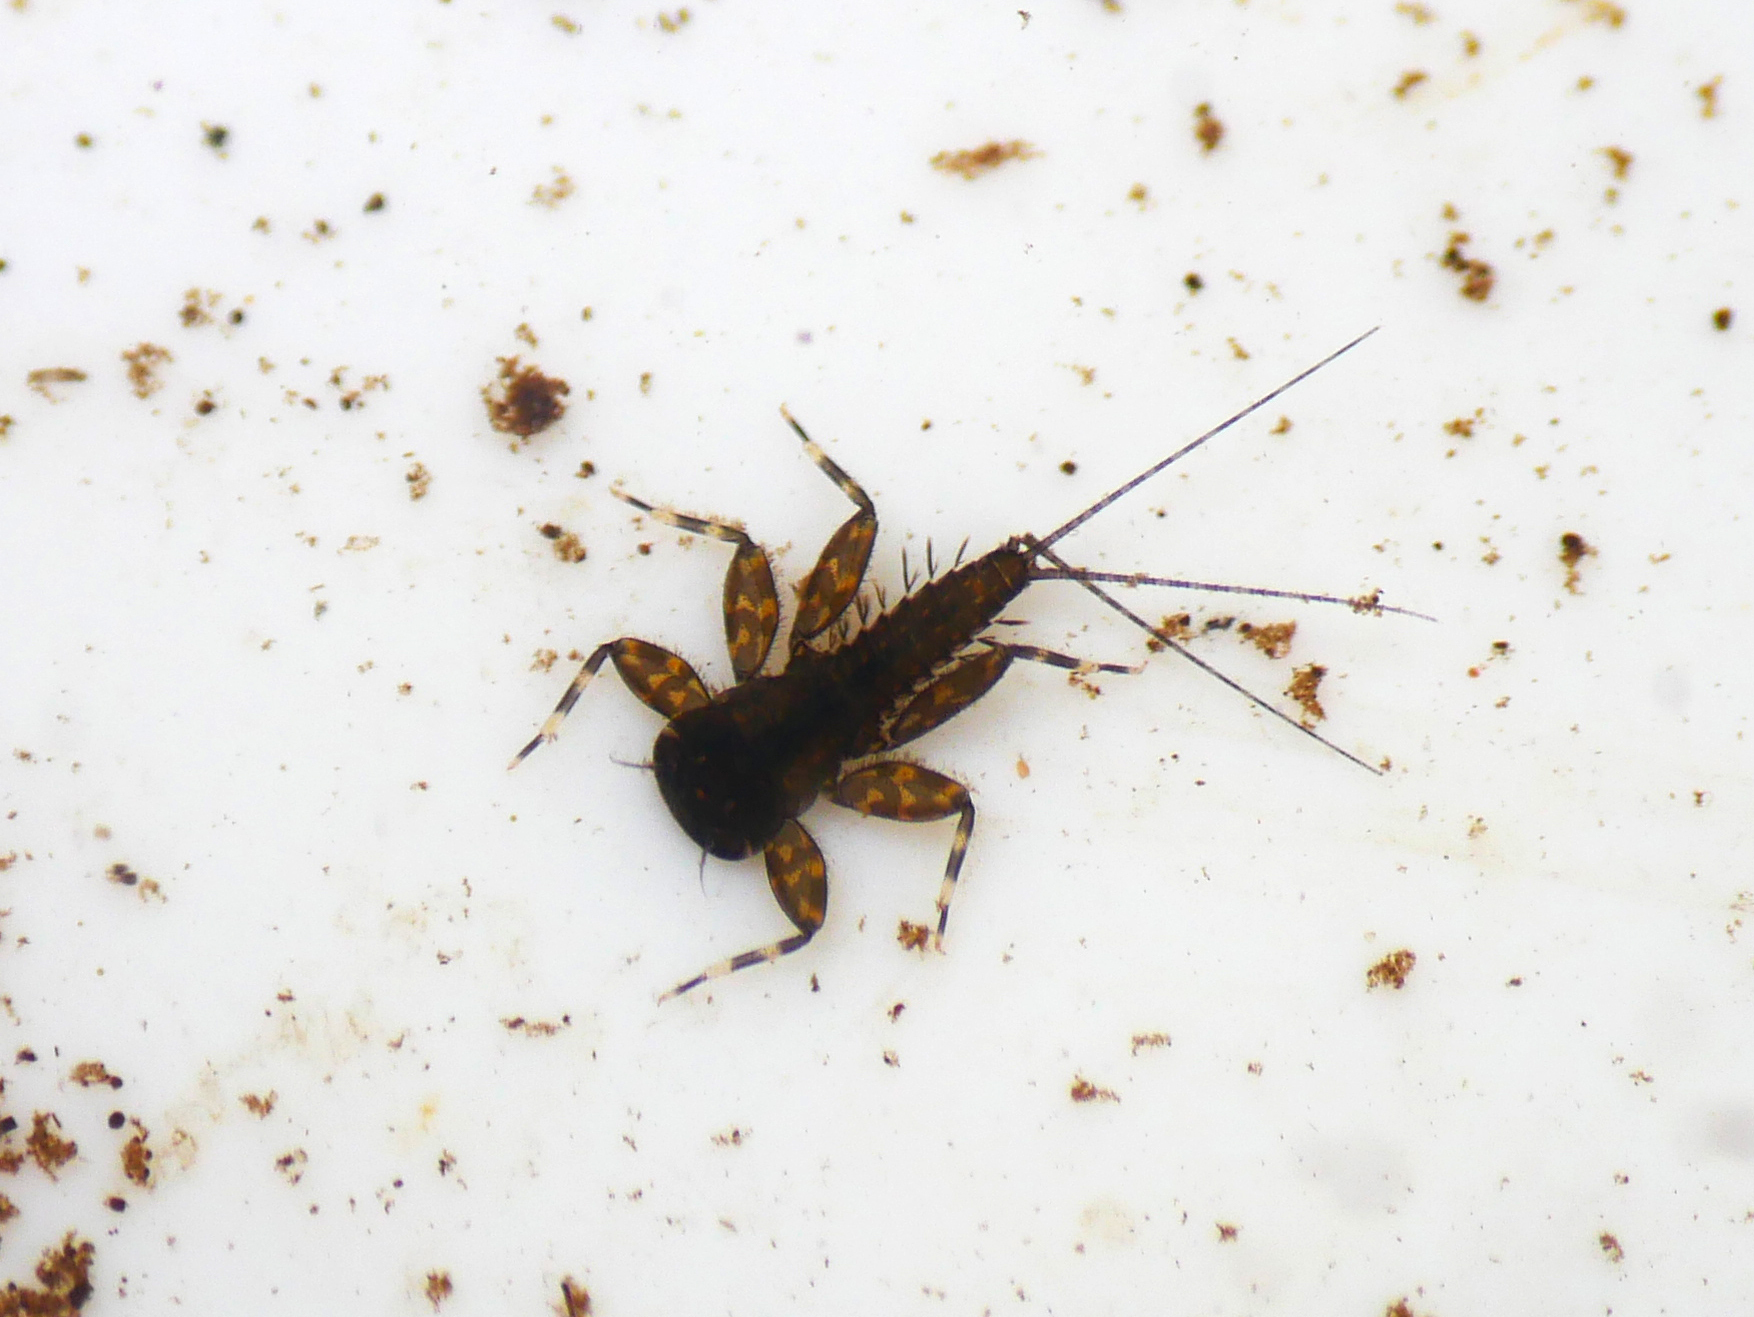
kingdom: Animalia
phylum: Arthropoda
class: Insecta
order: Ephemeroptera
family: Heptageniidae
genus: Heptagenia
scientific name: Heptagenia sulphurea
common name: Yellow may dun
